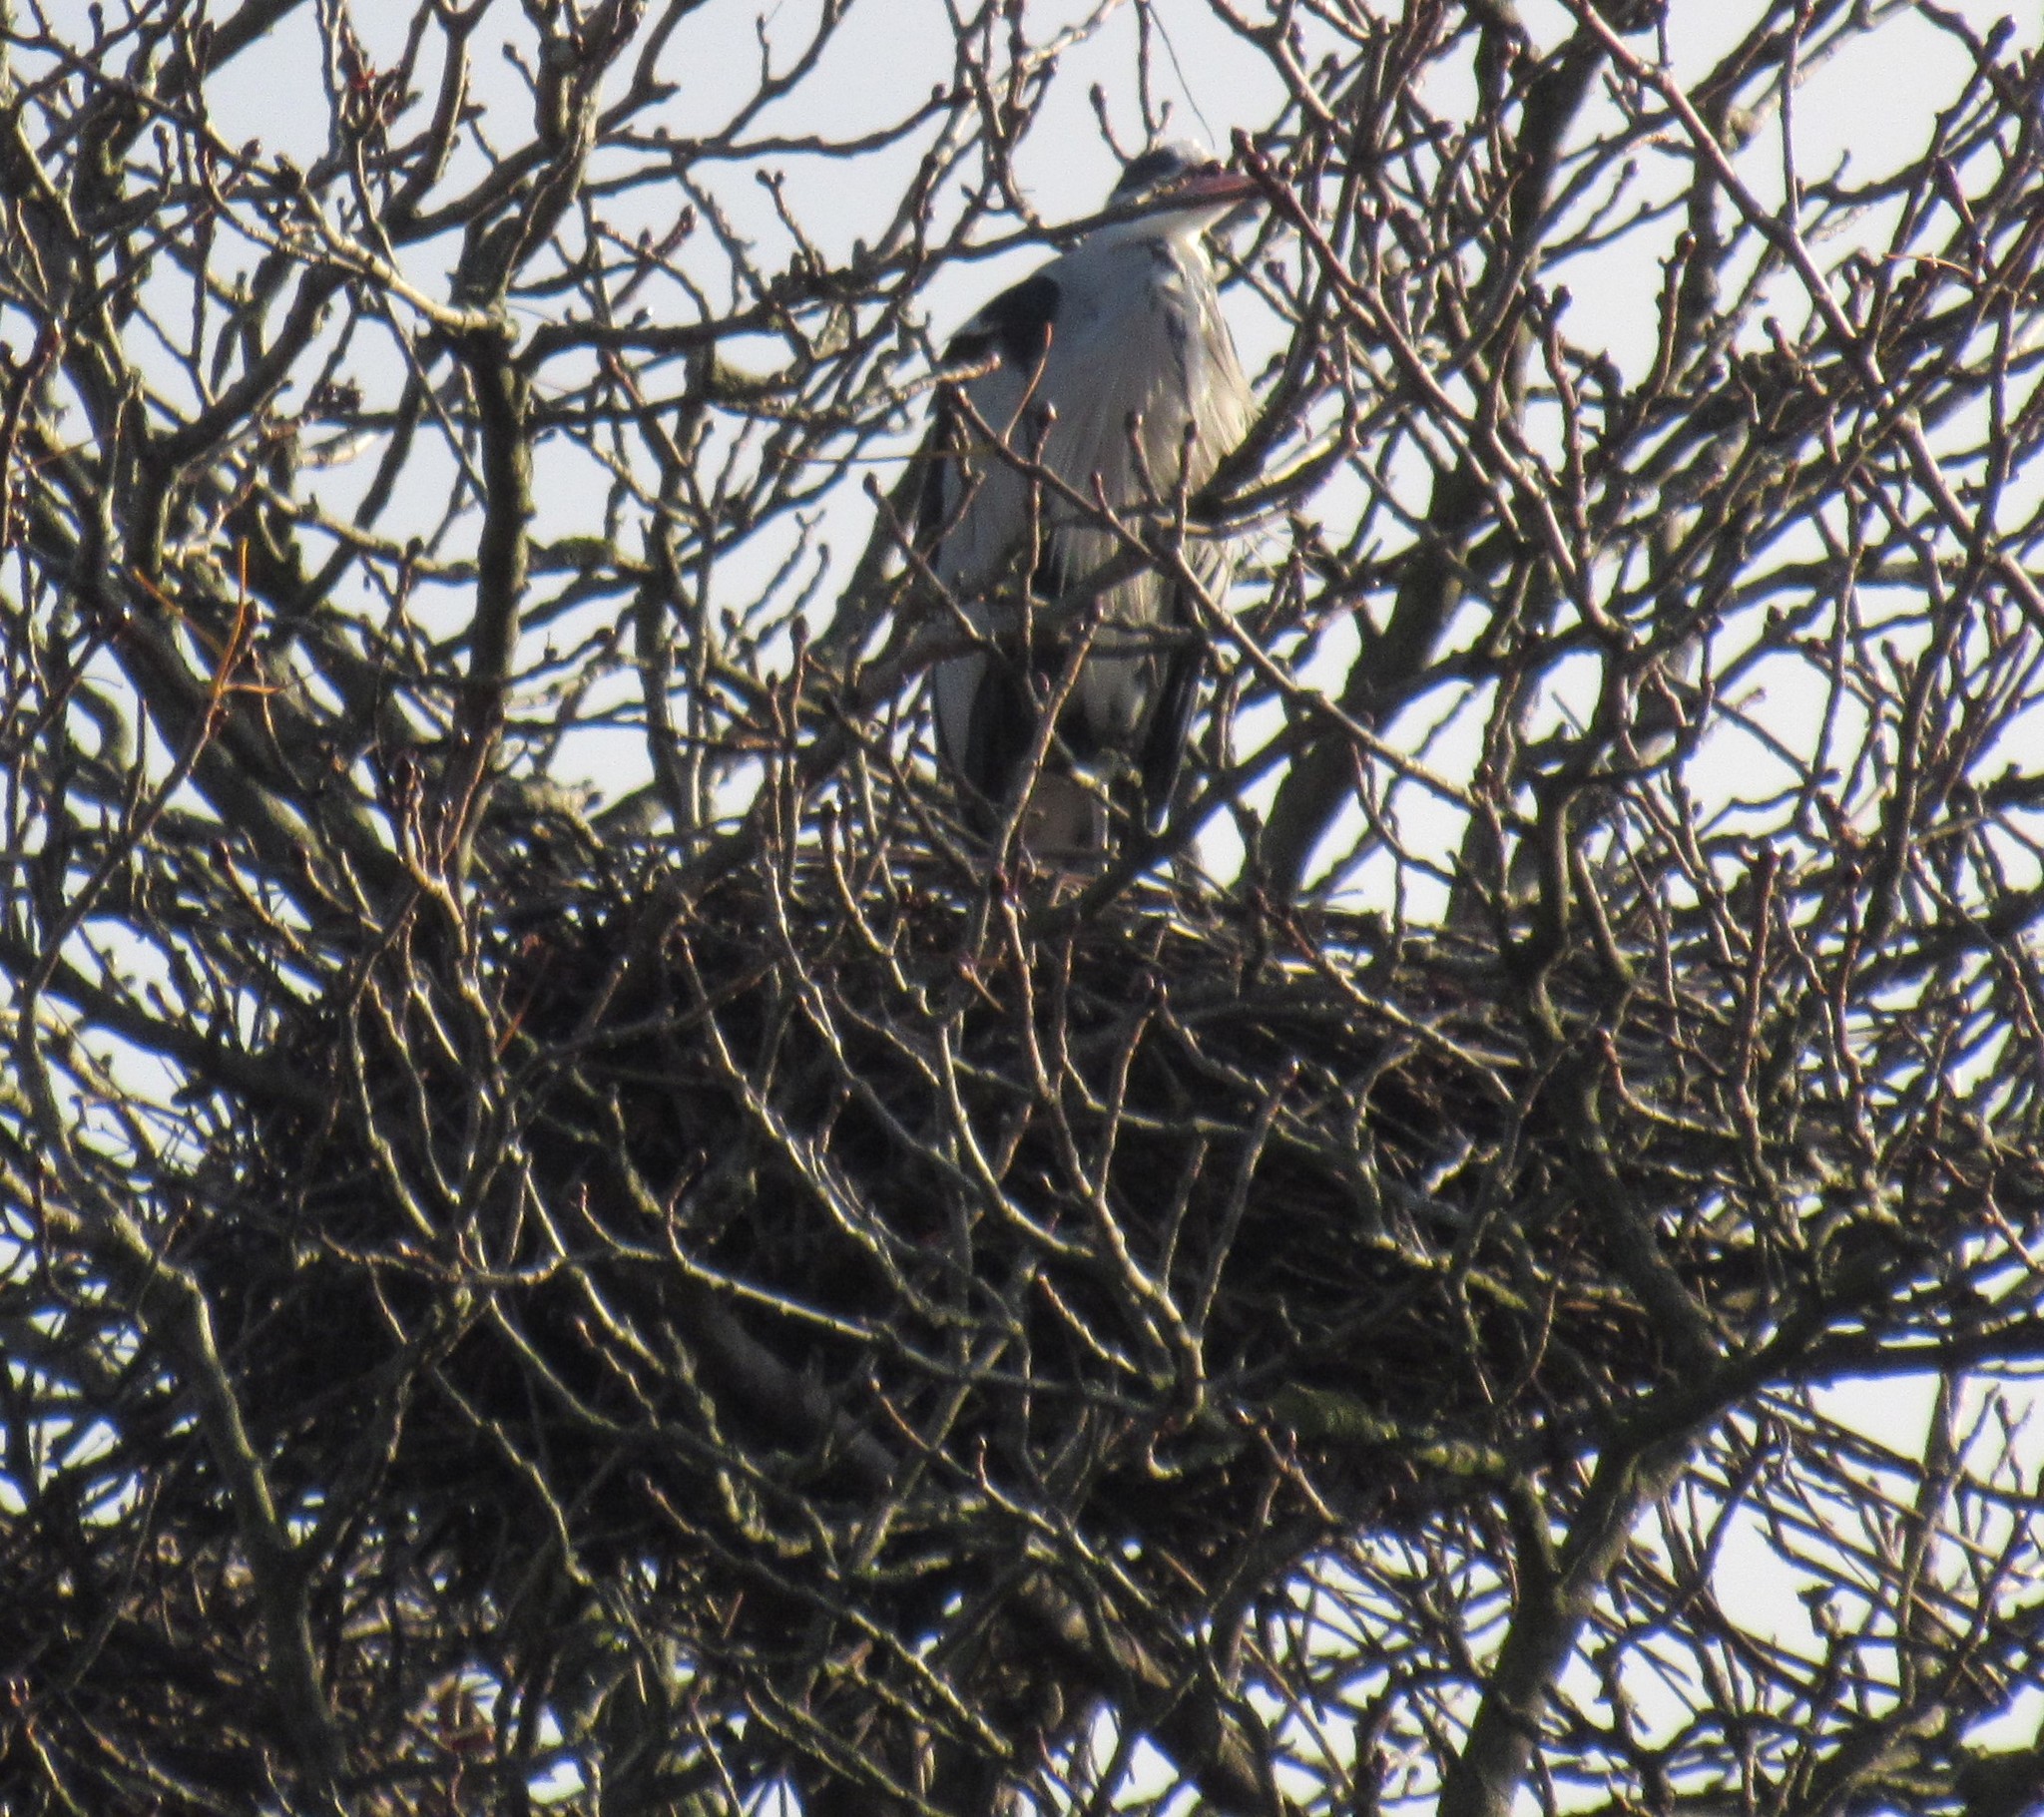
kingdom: Animalia
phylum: Chordata
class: Aves
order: Pelecaniformes
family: Ardeidae
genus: Ardea
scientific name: Ardea cinerea
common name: Grey heron
